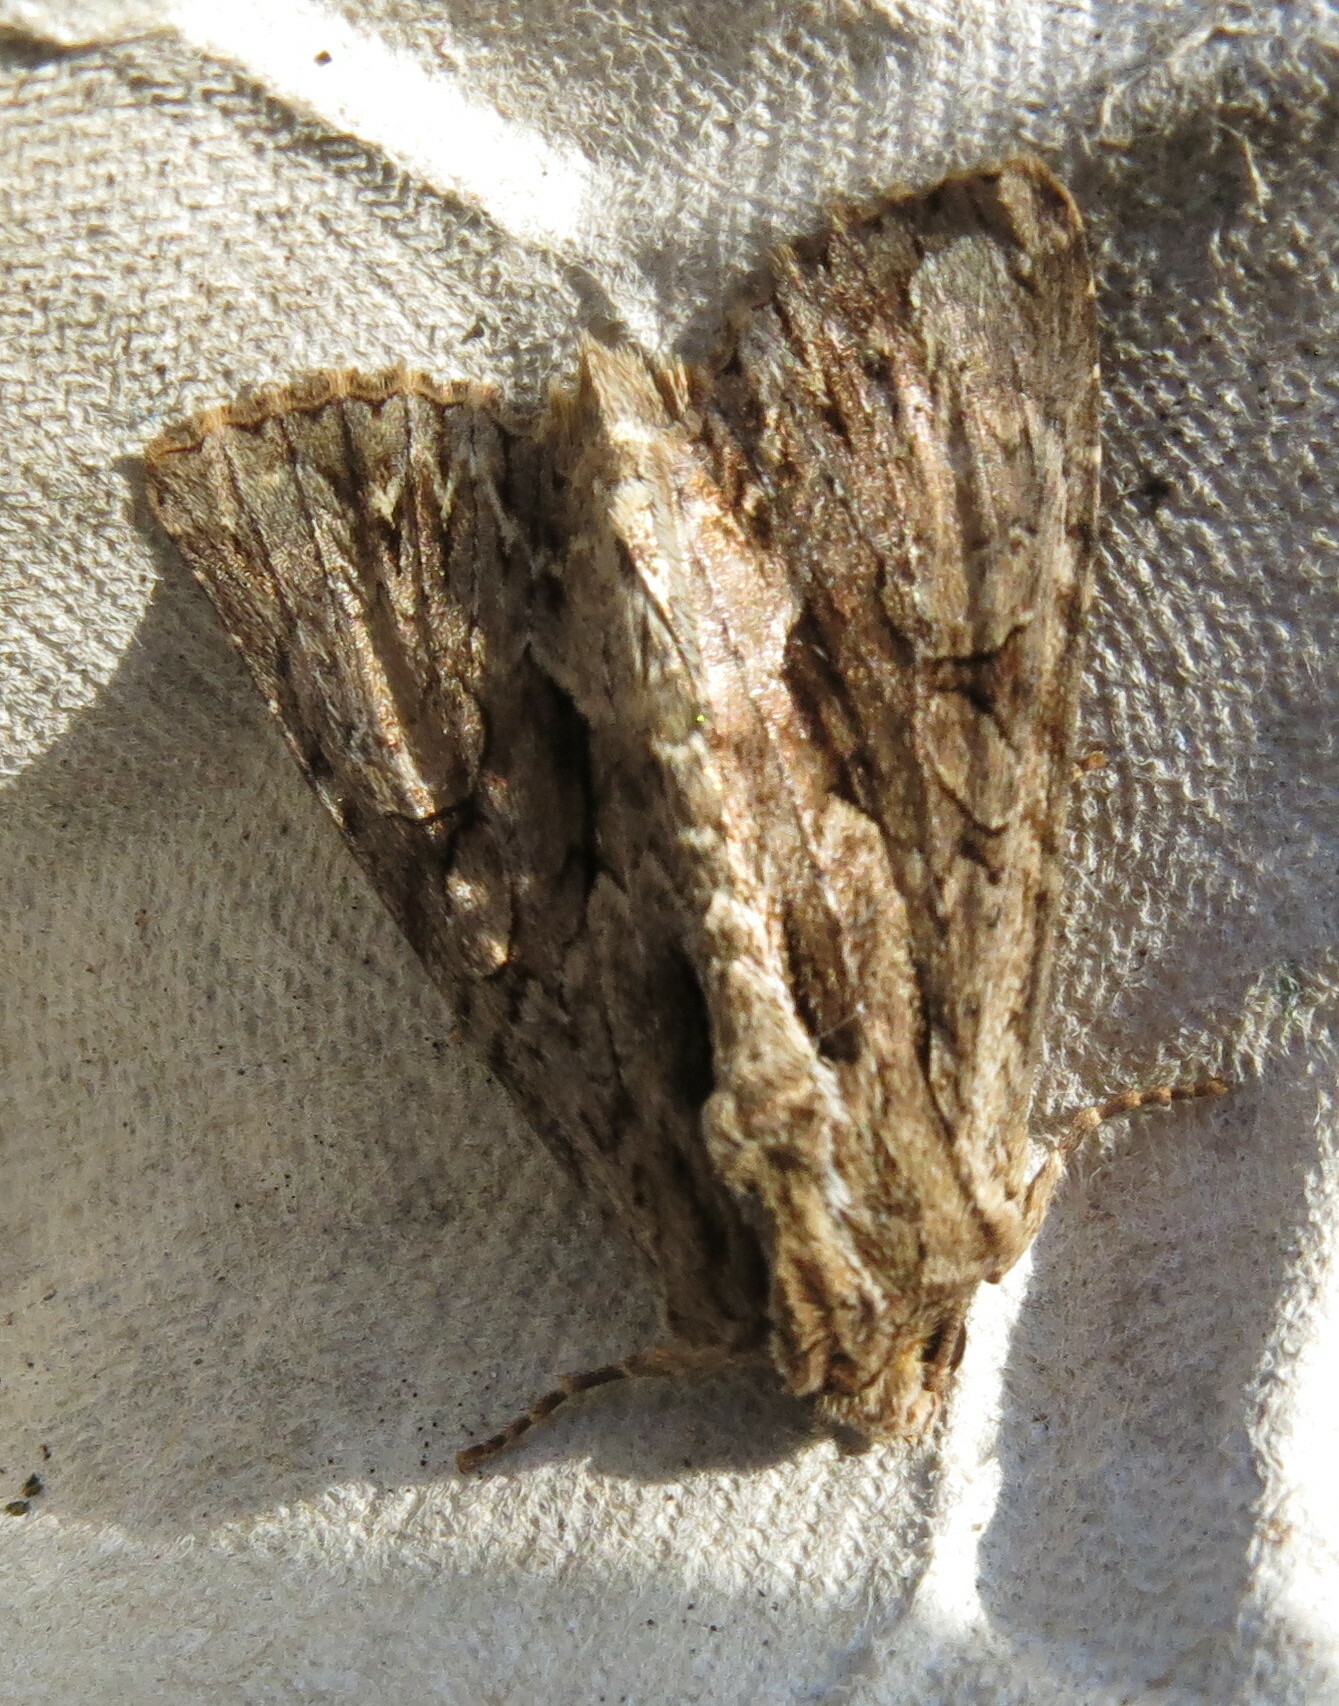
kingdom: Animalia
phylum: Arthropoda
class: Insecta
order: Lepidoptera
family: Noctuidae
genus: Apamea
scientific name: Apamea monoglypha
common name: Dark arches
